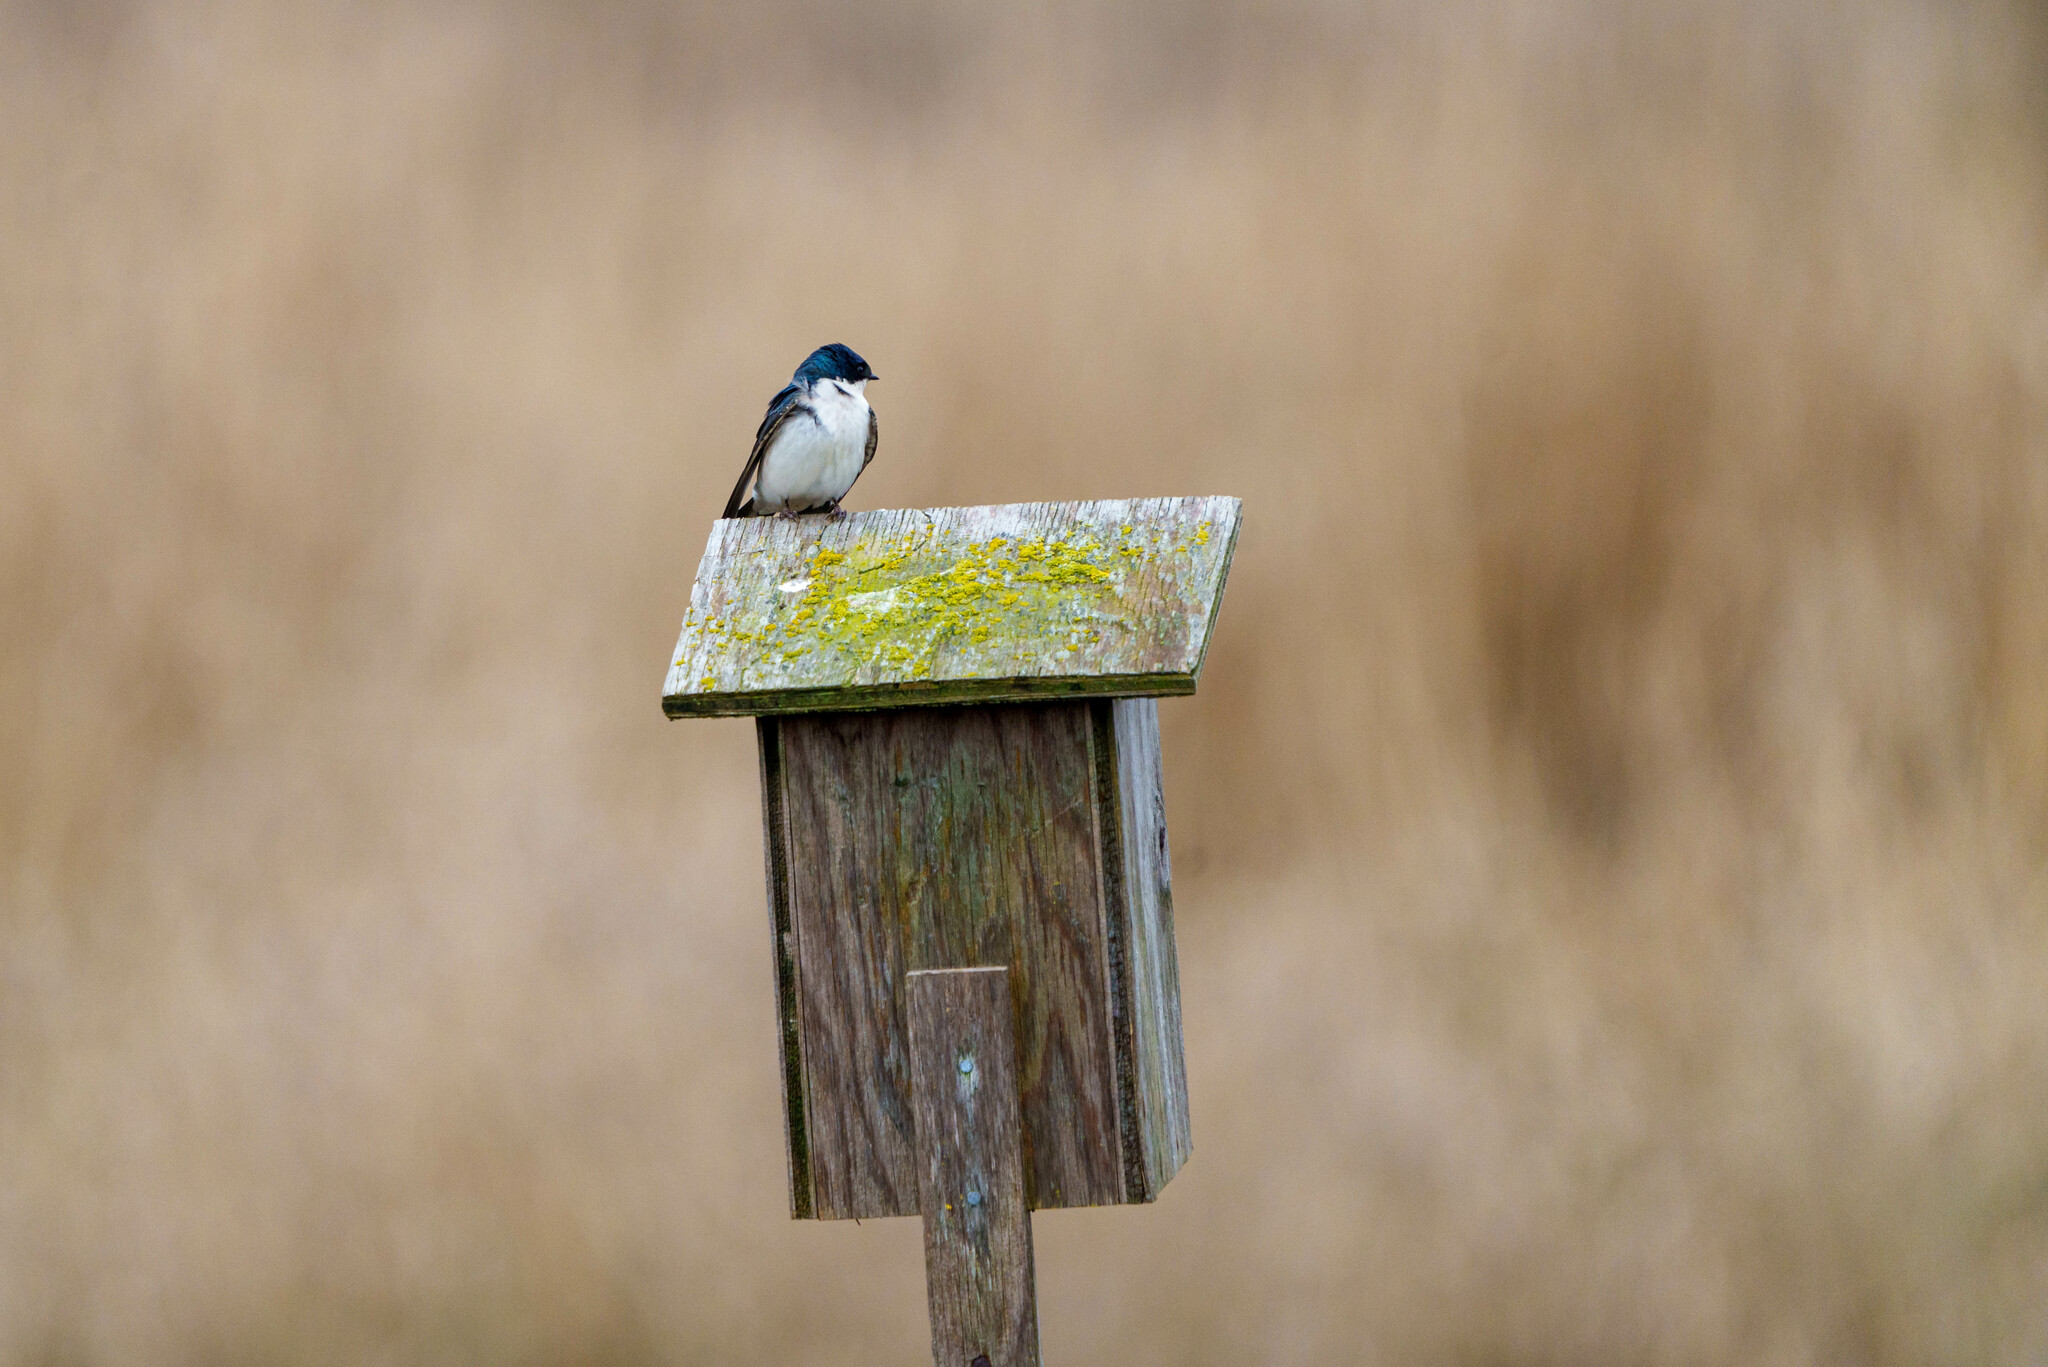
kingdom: Animalia
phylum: Chordata
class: Aves
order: Passeriformes
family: Hirundinidae
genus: Tachycineta
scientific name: Tachycineta bicolor
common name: Tree swallow
